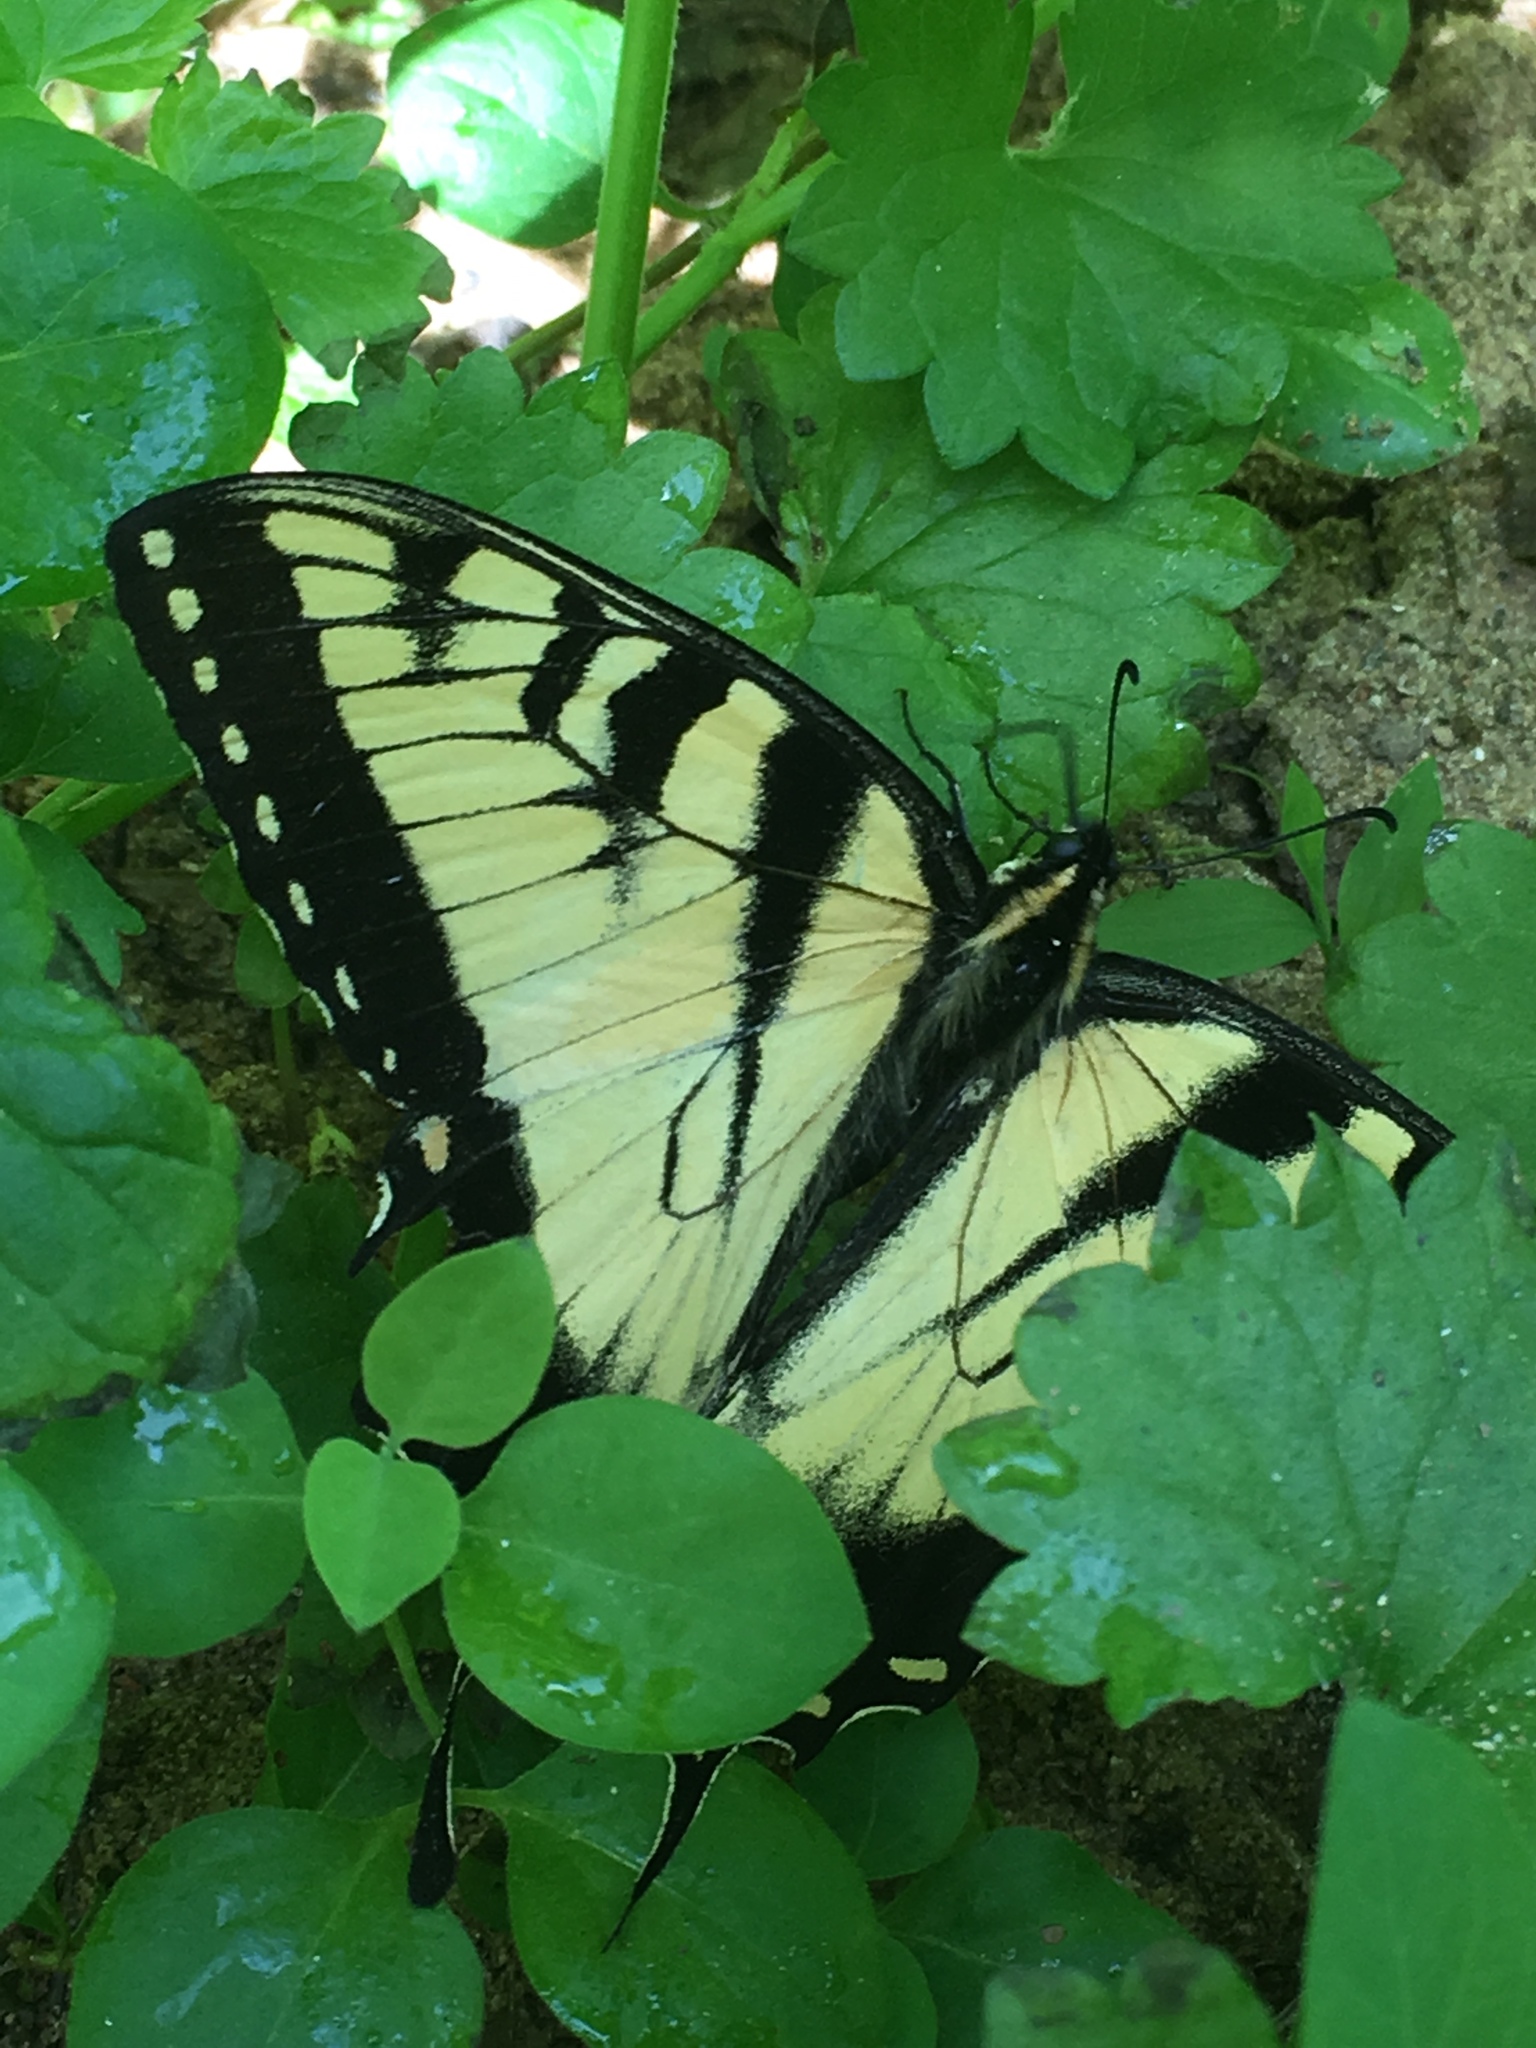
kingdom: Animalia
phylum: Arthropoda
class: Insecta
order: Lepidoptera
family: Papilionidae
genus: Papilio
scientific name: Papilio glaucus
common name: Tiger swallowtail
